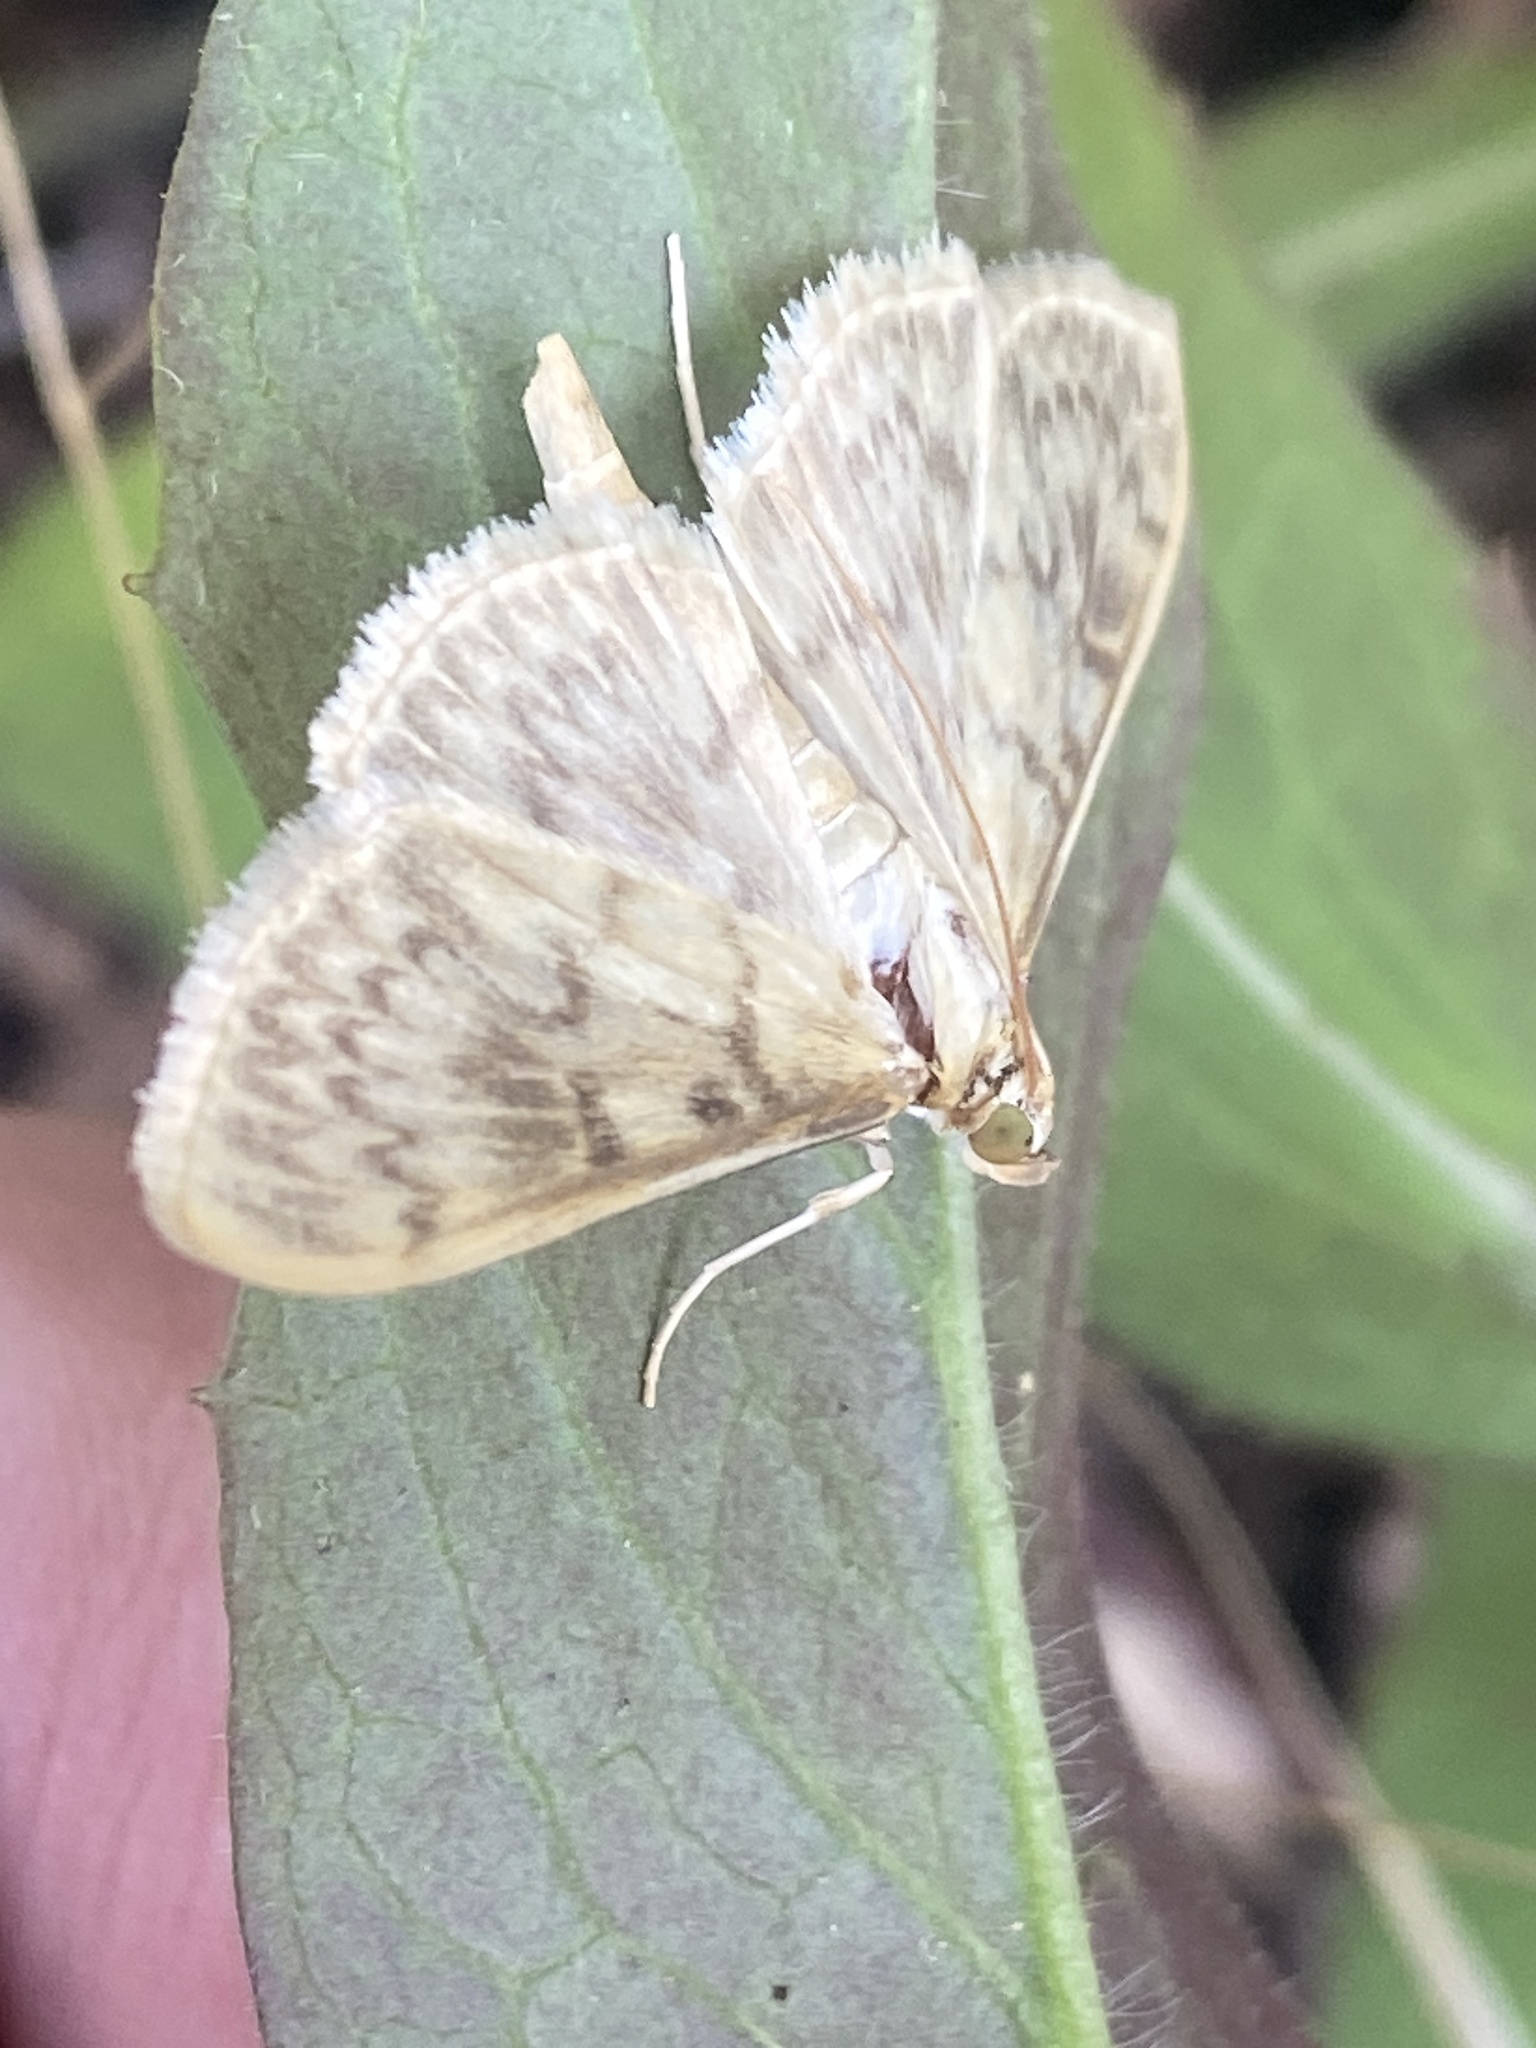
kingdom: Animalia
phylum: Arthropoda
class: Insecta
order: Lepidoptera
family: Crambidae
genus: Patania
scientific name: Patania ruralis
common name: Mother of pearl
